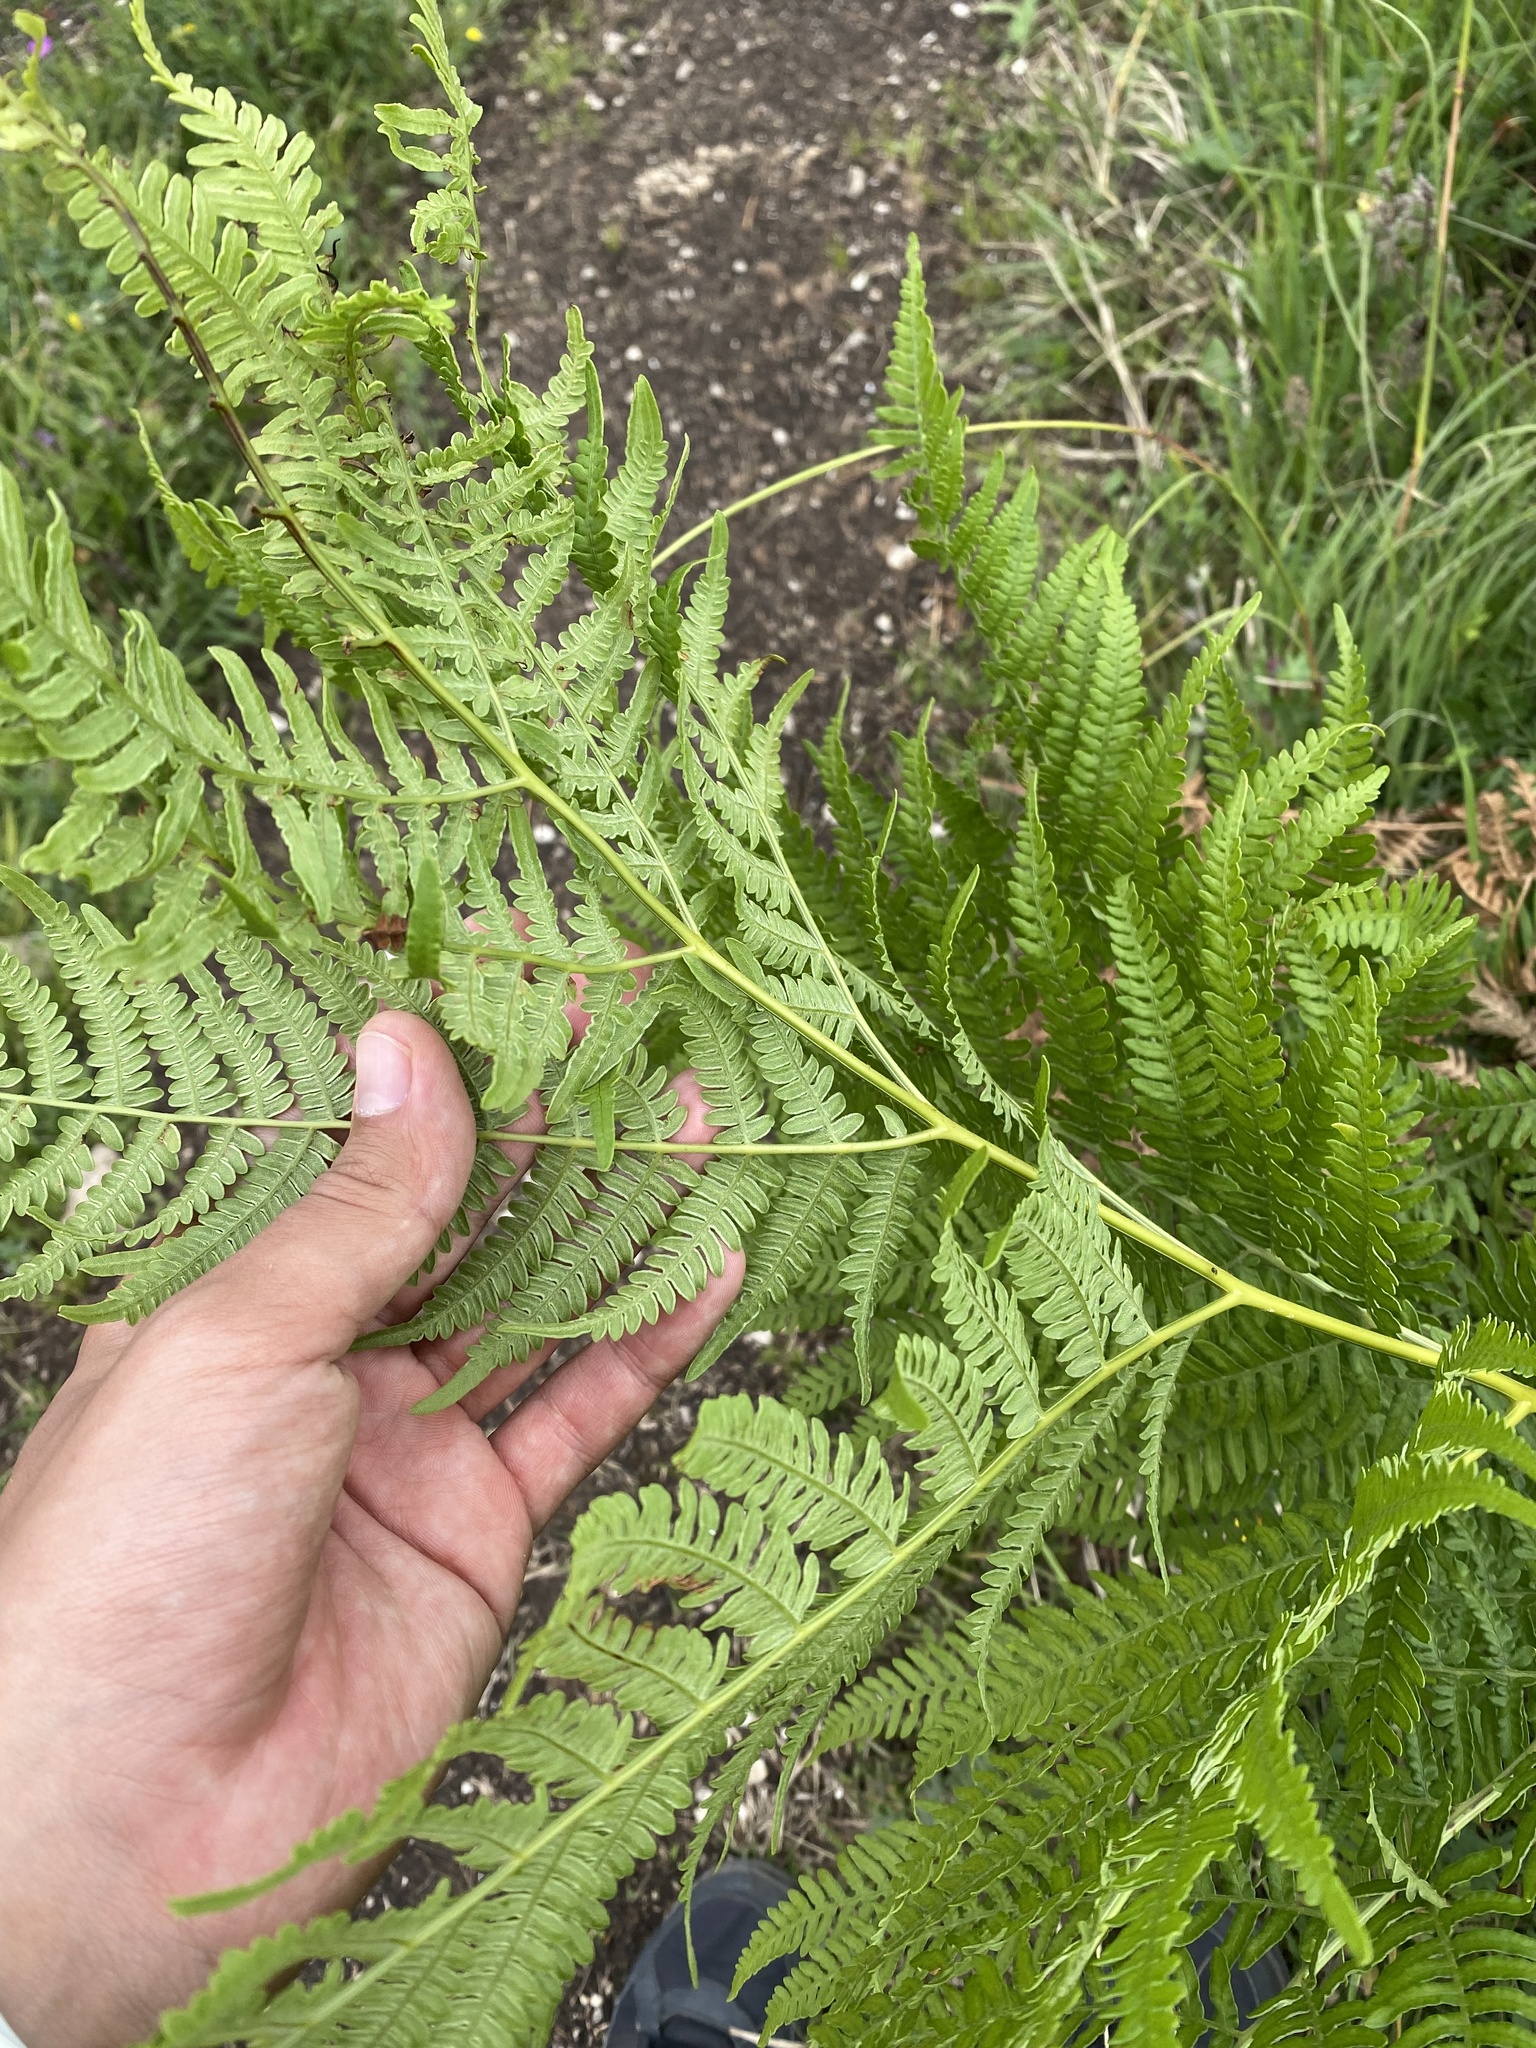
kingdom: Plantae
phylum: Tracheophyta
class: Polypodiopsida
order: Polypodiales
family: Dennstaedtiaceae
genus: Pteridium
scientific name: Pteridium tauricum
